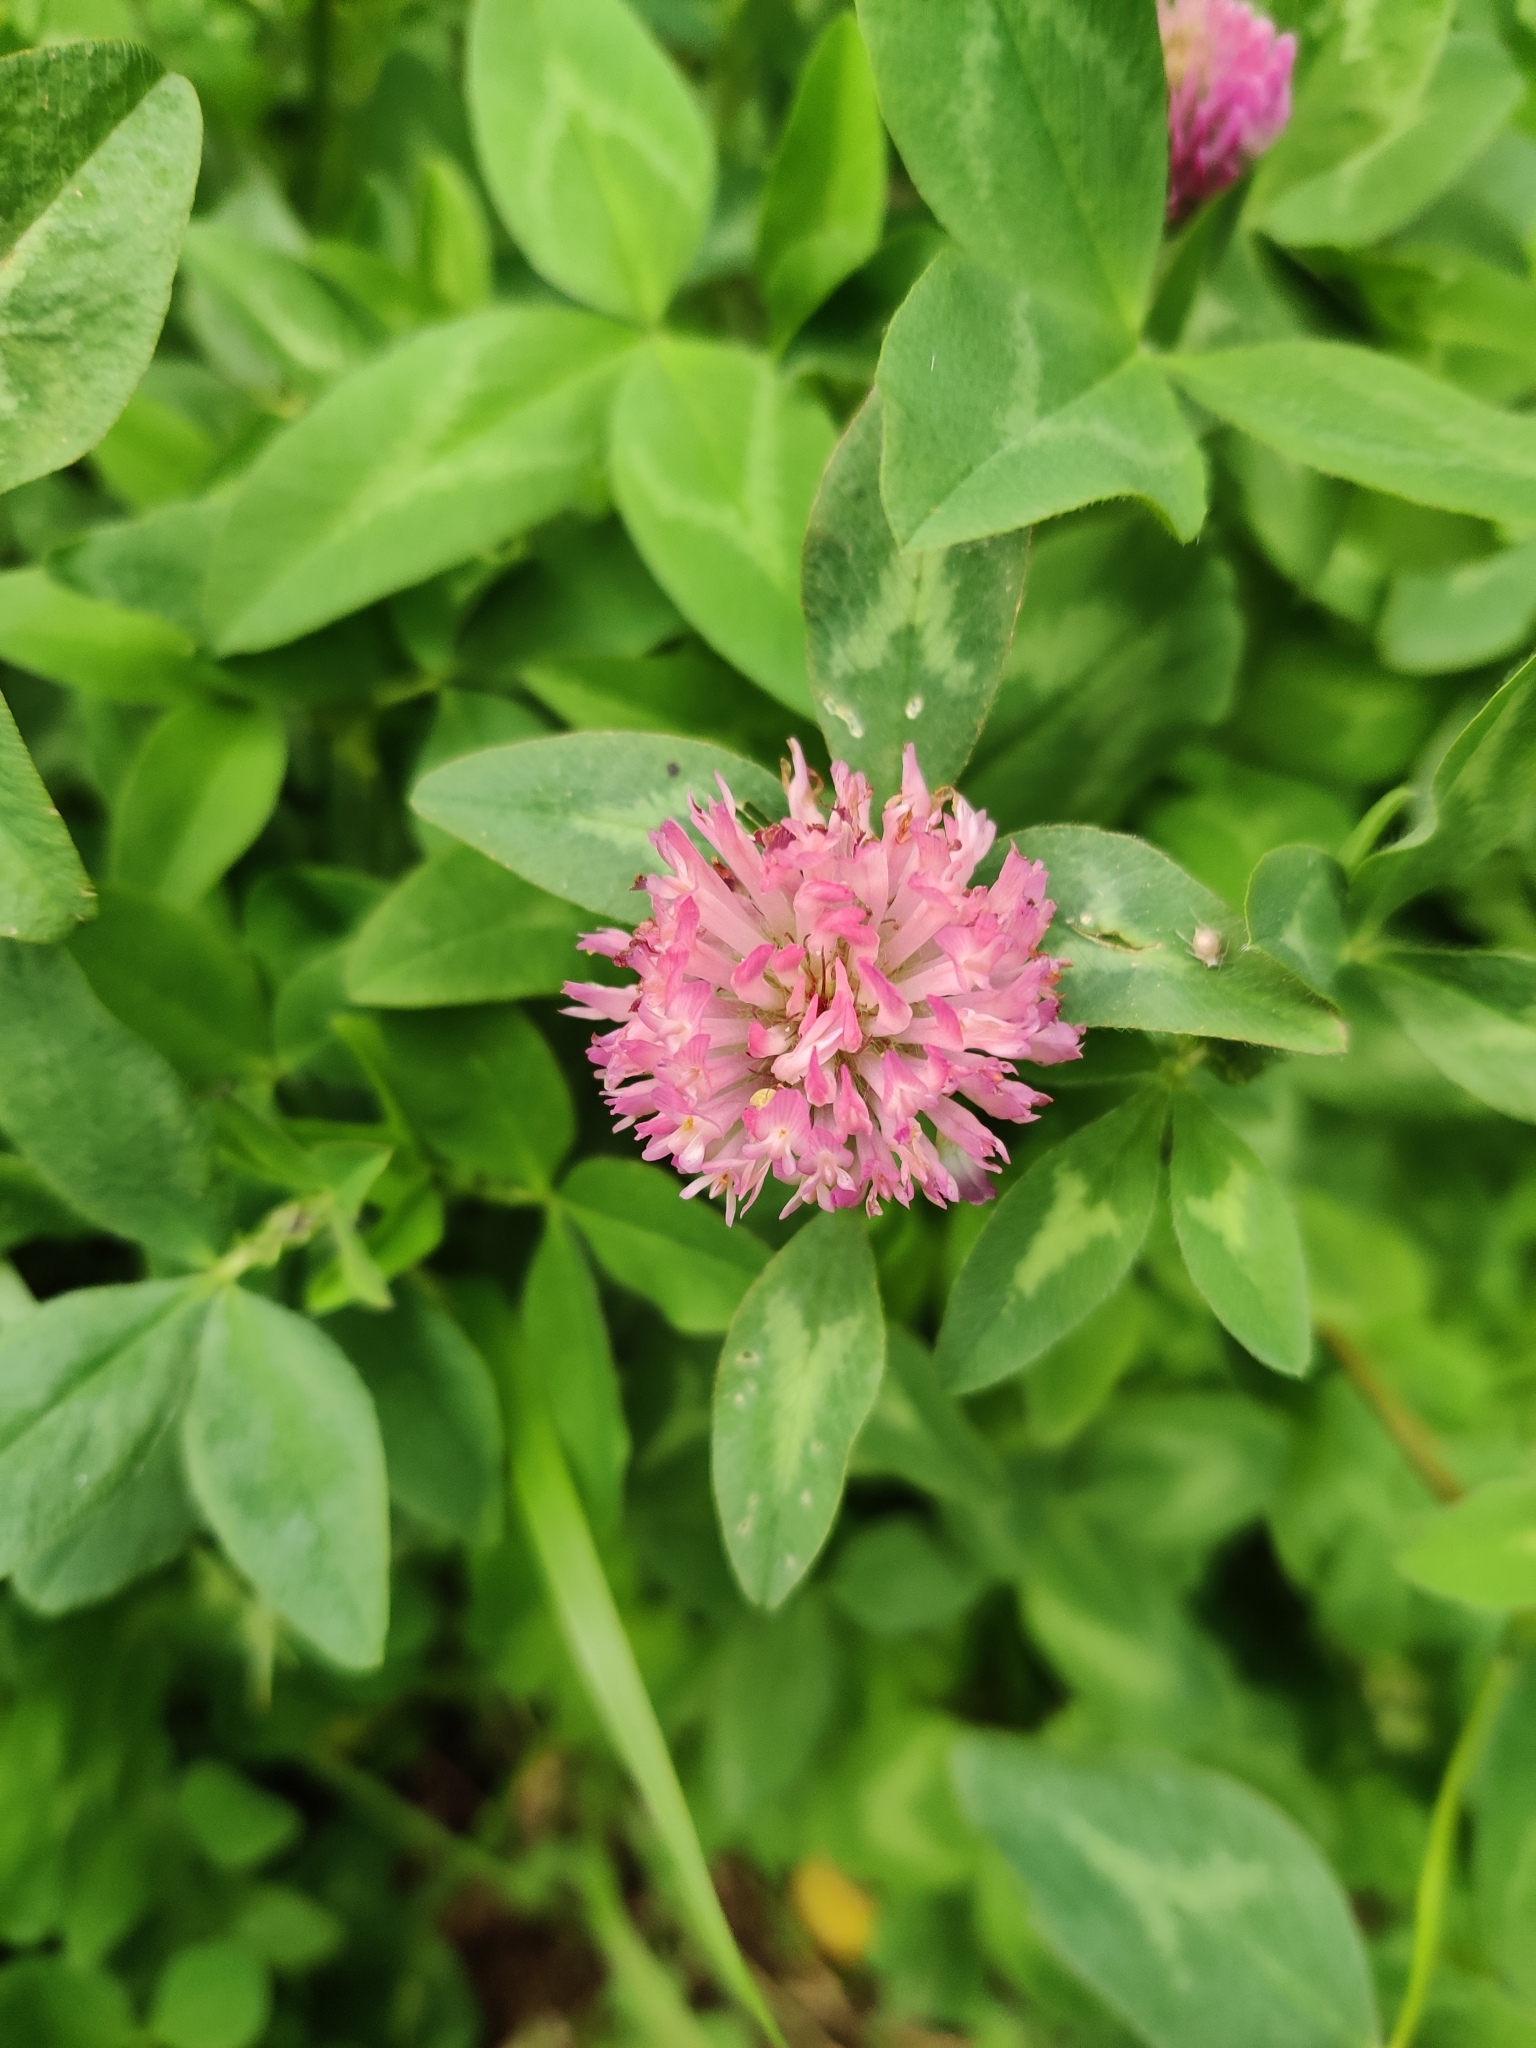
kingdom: Plantae
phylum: Tracheophyta
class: Magnoliopsida
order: Fabales
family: Fabaceae
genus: Trifolium
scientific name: Trifolium pratense
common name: Red clover
